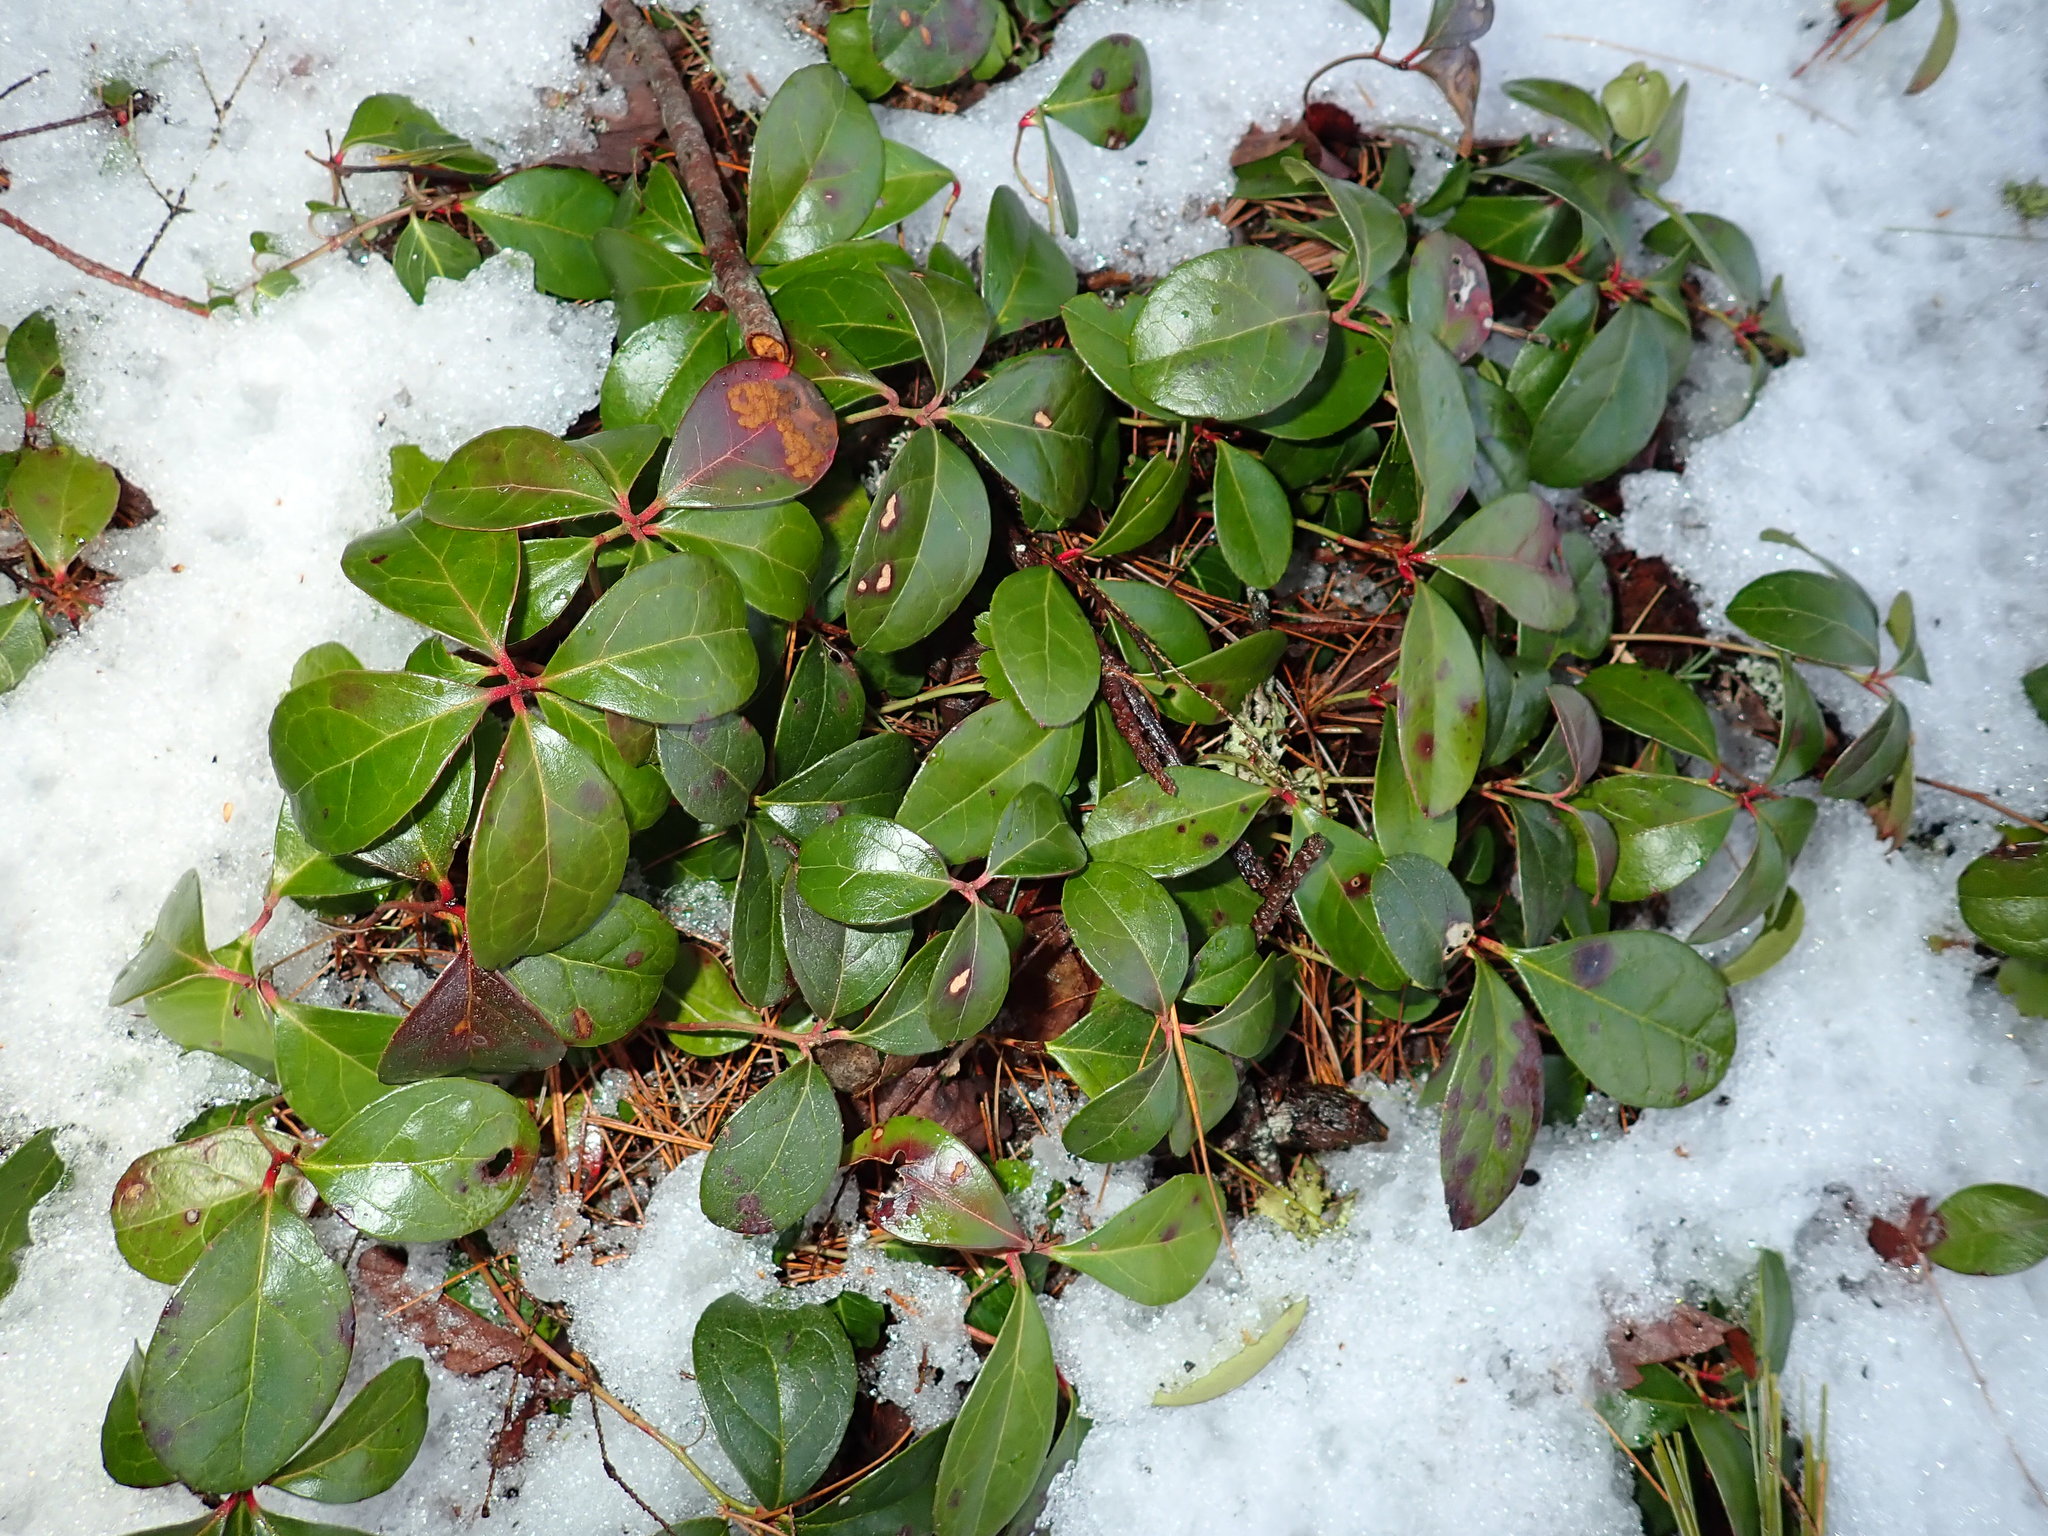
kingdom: Plantae
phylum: Tracheophyta
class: Magnoliopsida
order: Ericales
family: Ericaceae
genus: Gaultheria
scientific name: Gaultheria procumbens
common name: Checkerberry
